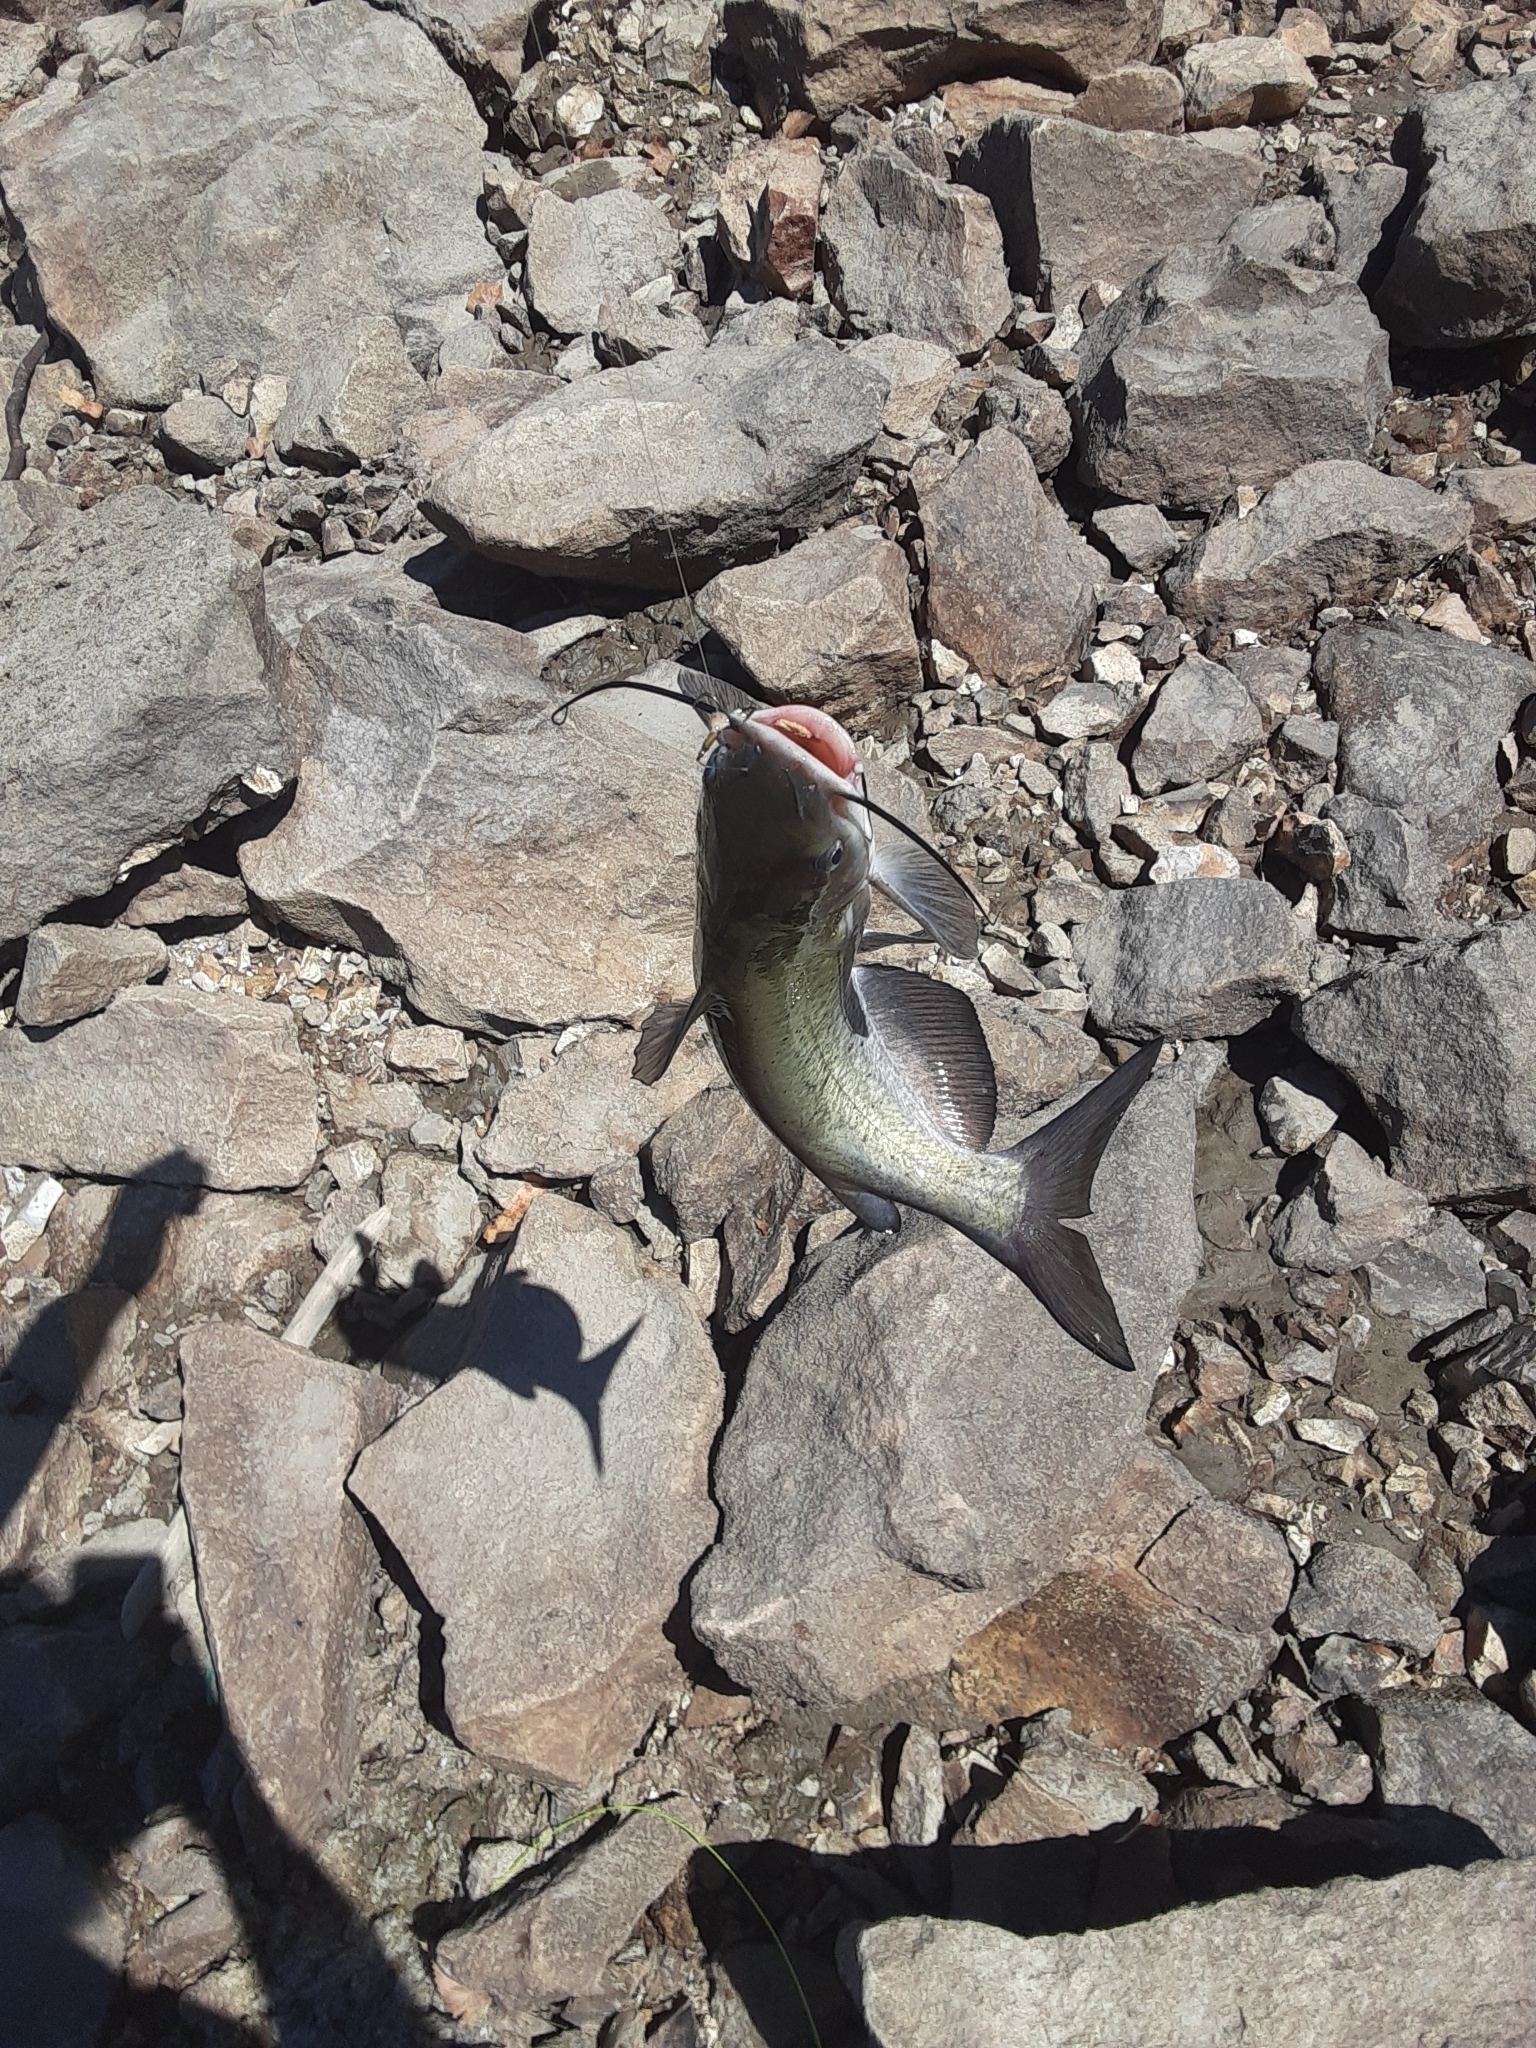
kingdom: Animalia
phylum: Chordata
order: Siluriformes
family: Ictaluridae
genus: Ictalurus
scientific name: Ictalurus punctatus
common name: Channel catfish
